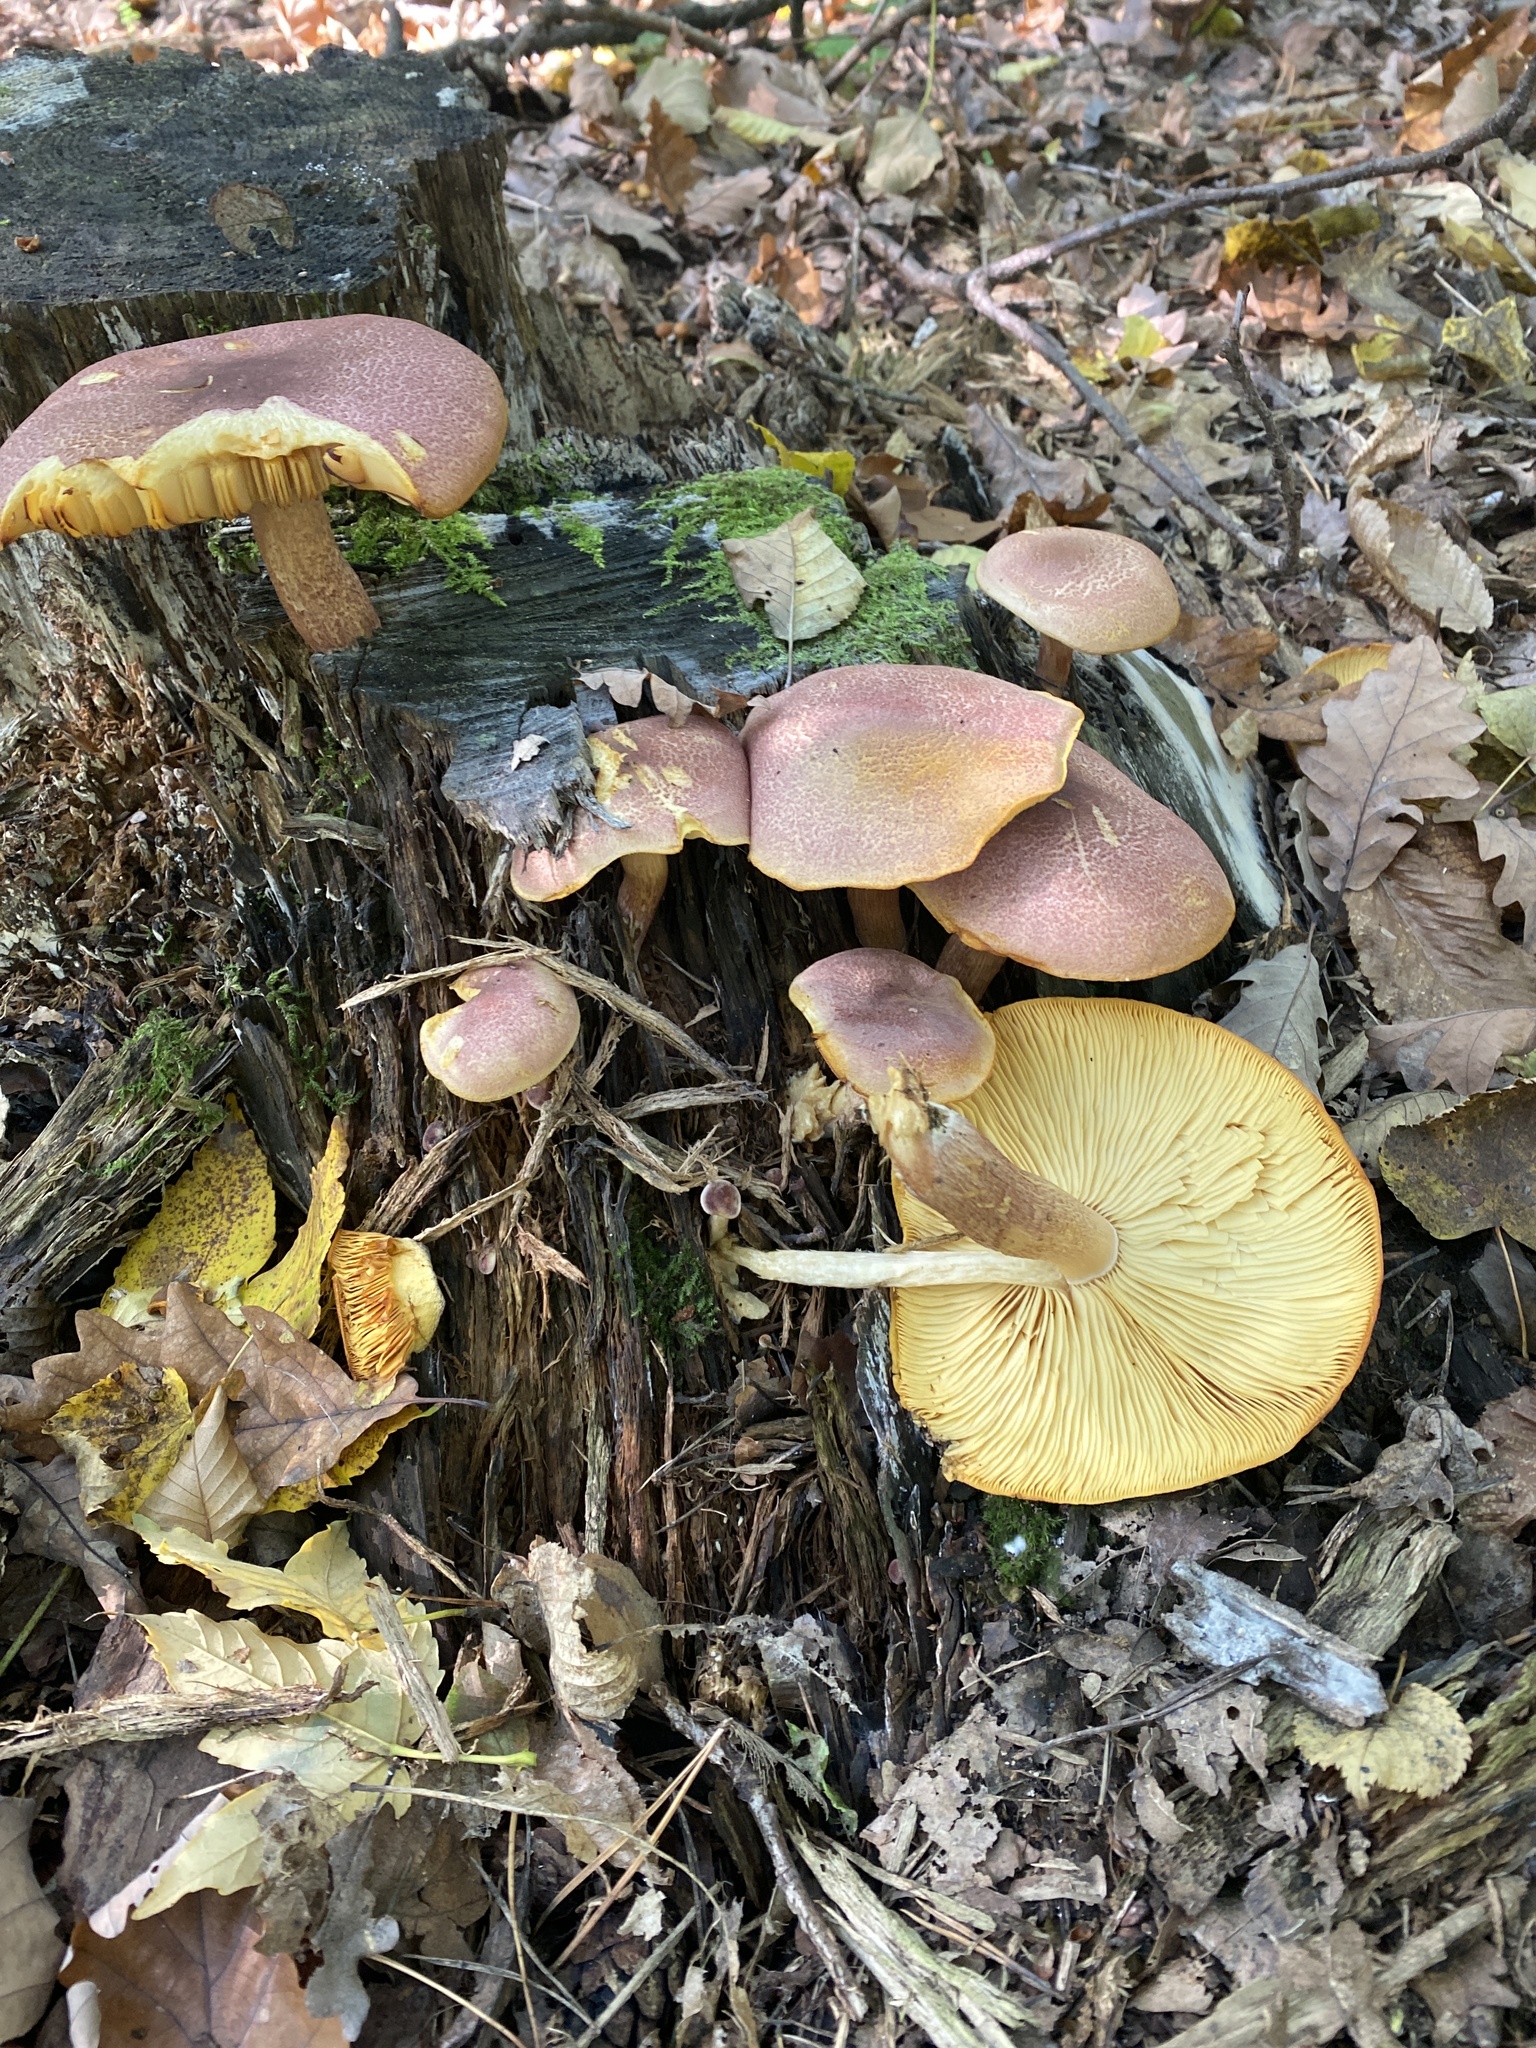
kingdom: Fungi
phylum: Basidiomycota
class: Agaricomycetes
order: Agaricales
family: Tricholomataceae
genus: Tricholomopsis
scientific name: Tricholomopsis rutilans
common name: Plums and custard
